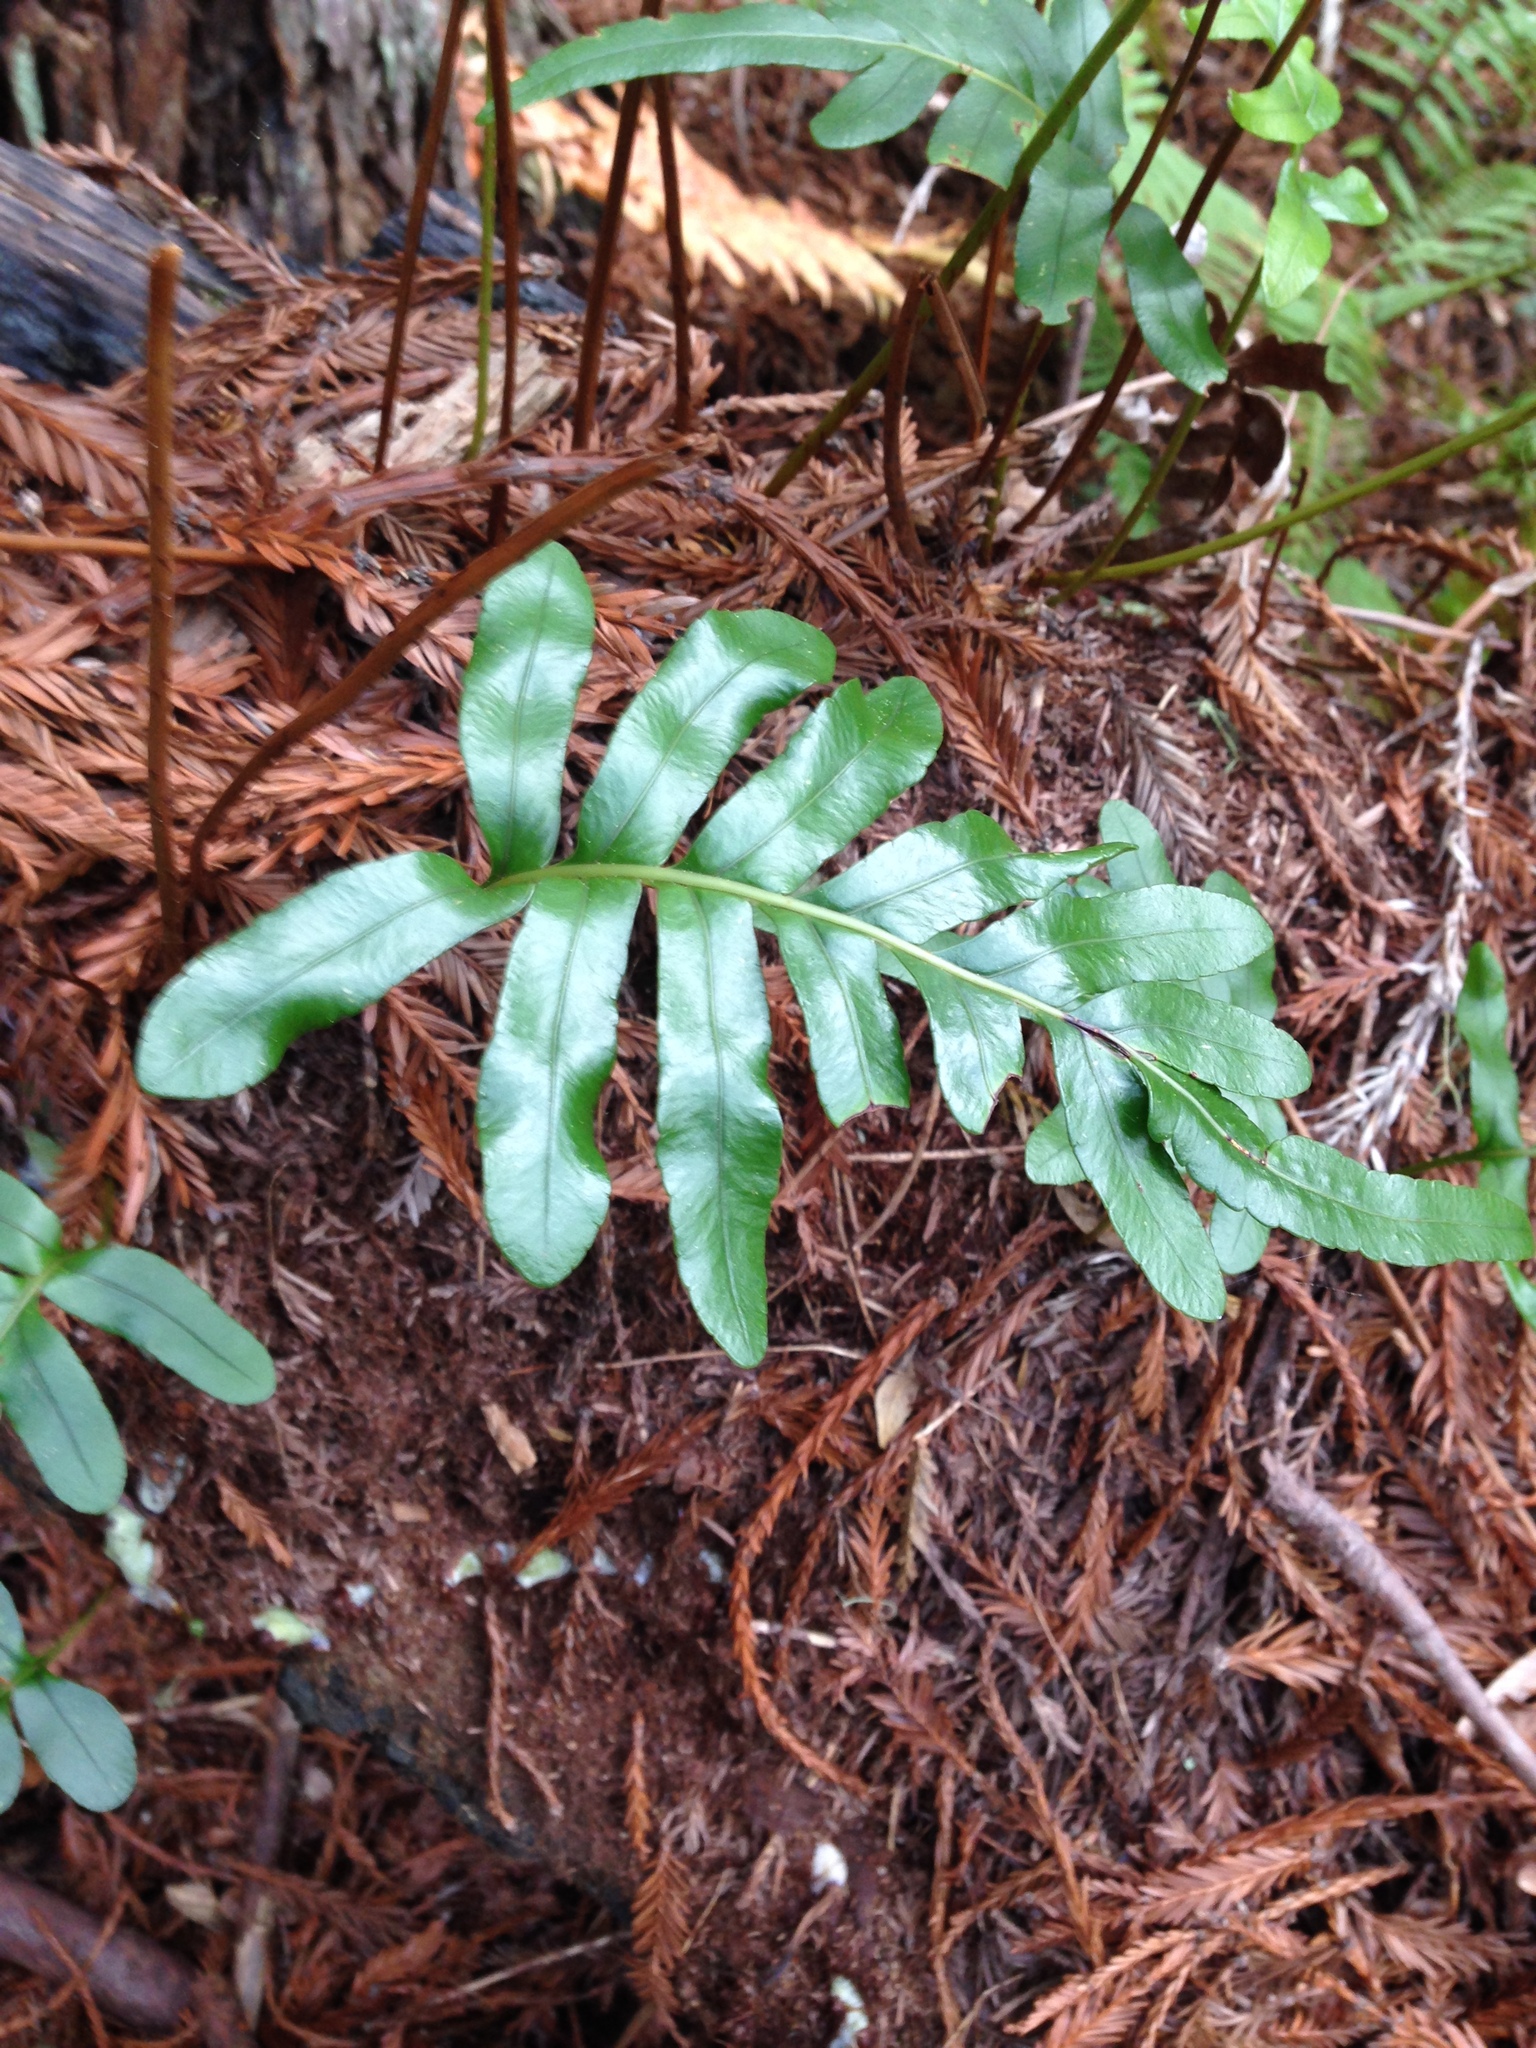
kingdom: Plantae
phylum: Tracheophyta
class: Polypodiopsida
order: Polypodiales
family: Polypodiaceae
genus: Polypodium
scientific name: Polypodium scouleri
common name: Scouler's polypody
